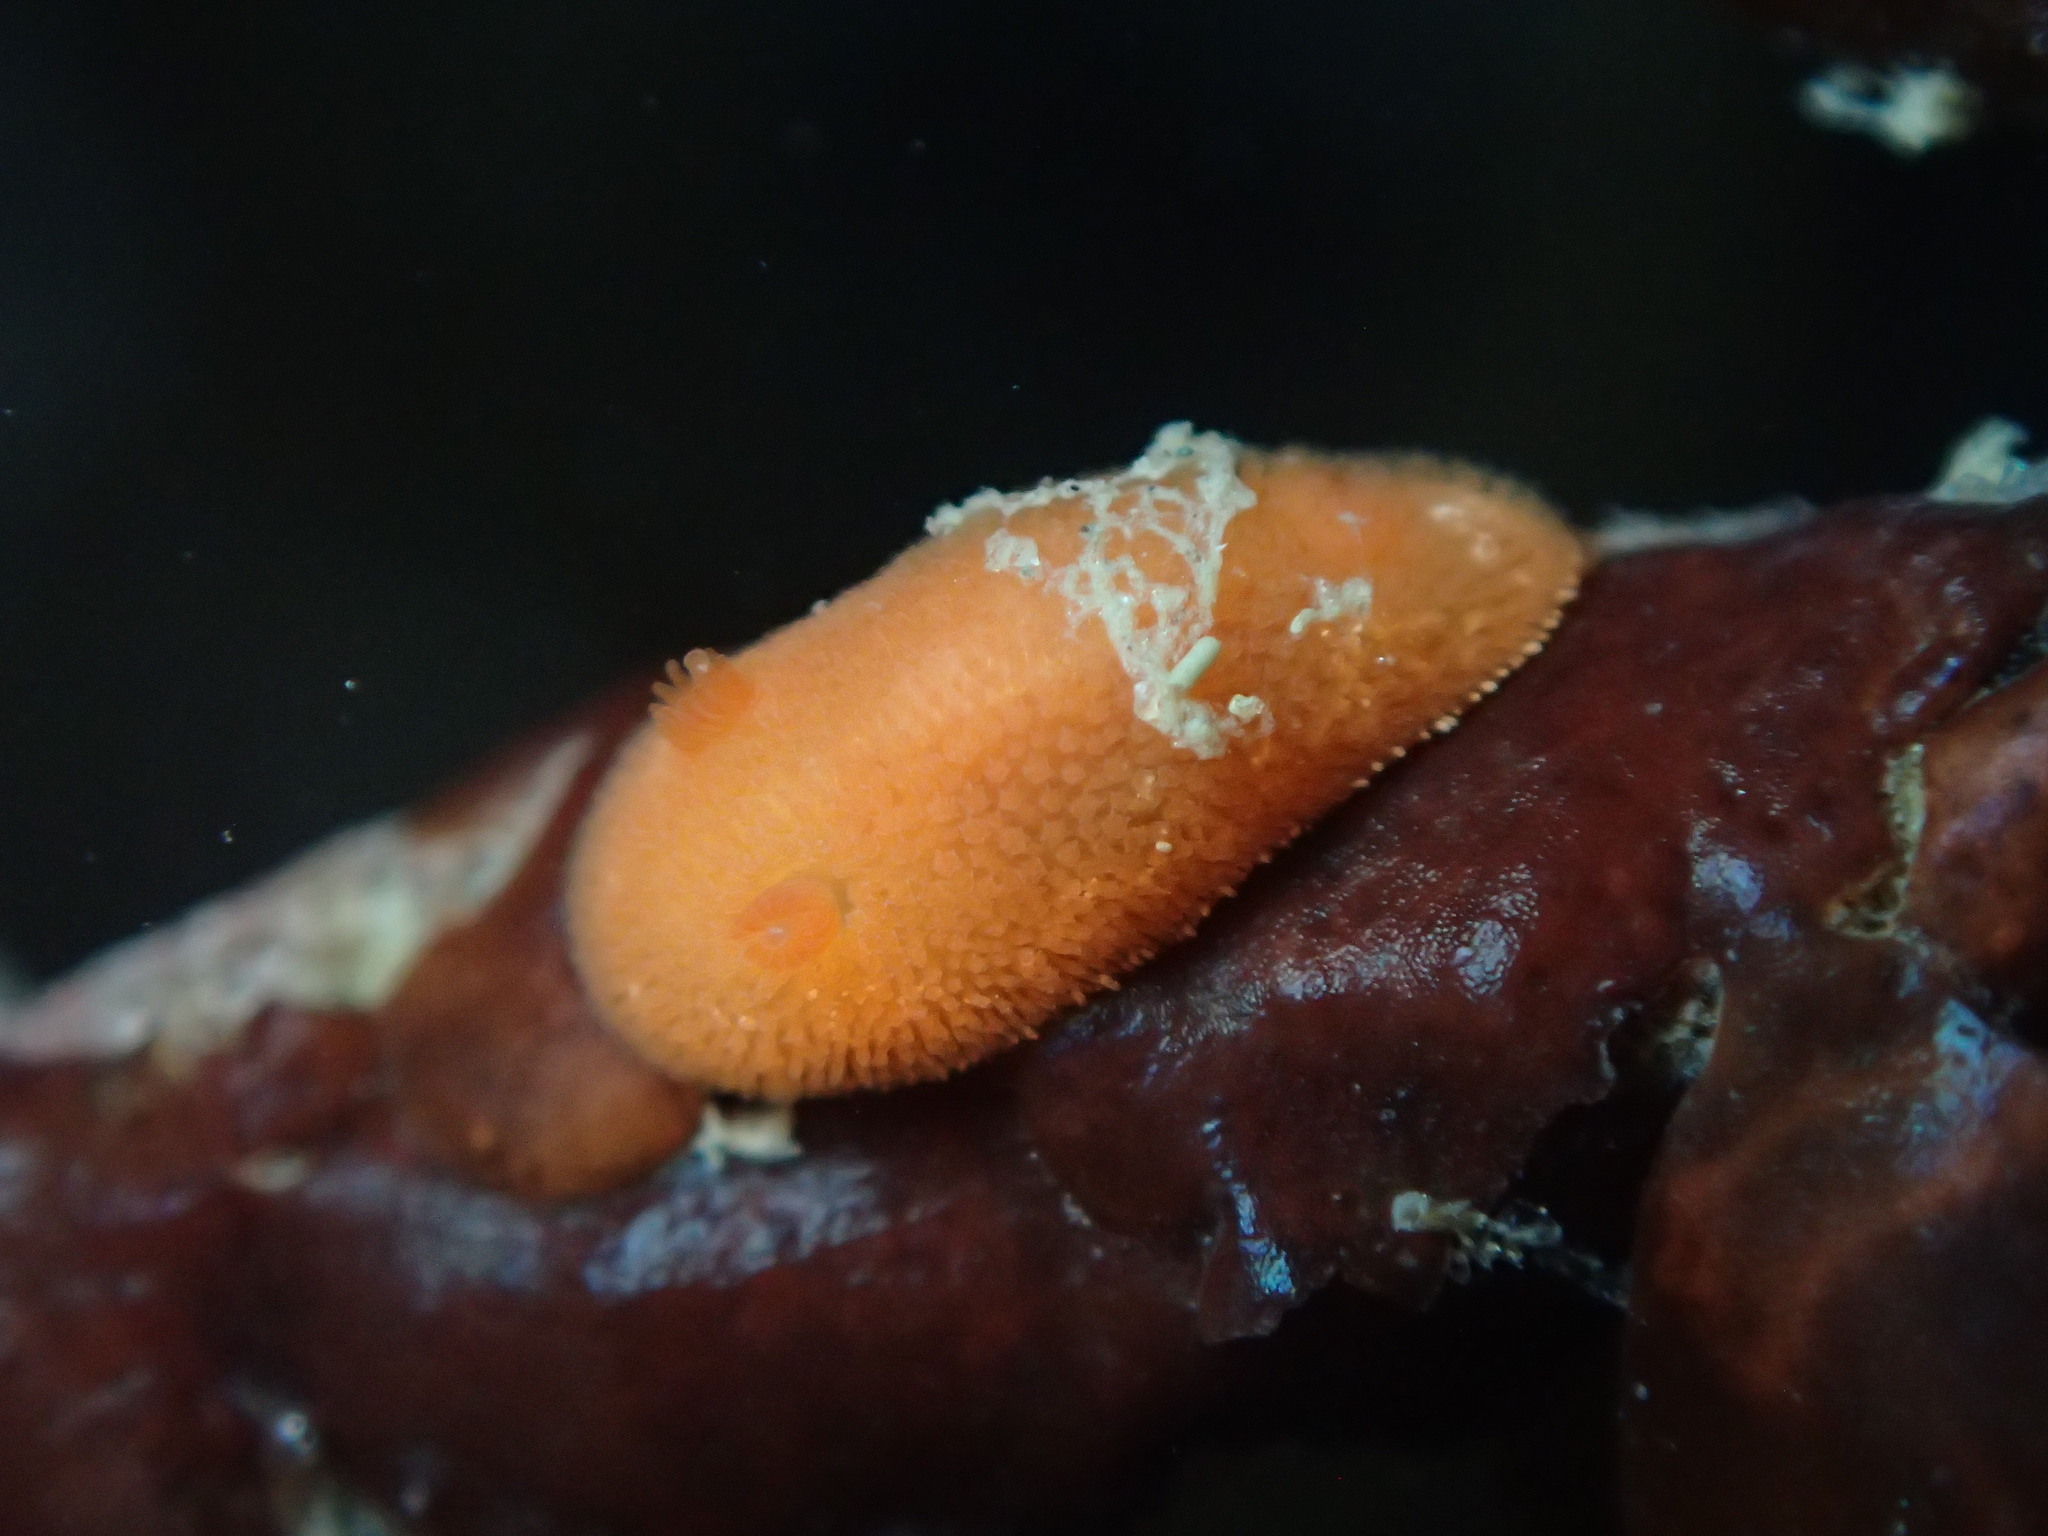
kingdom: Animalia
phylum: Mollusca
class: Gastropoda
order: Nudibranchia
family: Discodorididae
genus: Rostanga
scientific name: Rostanga pulchra
